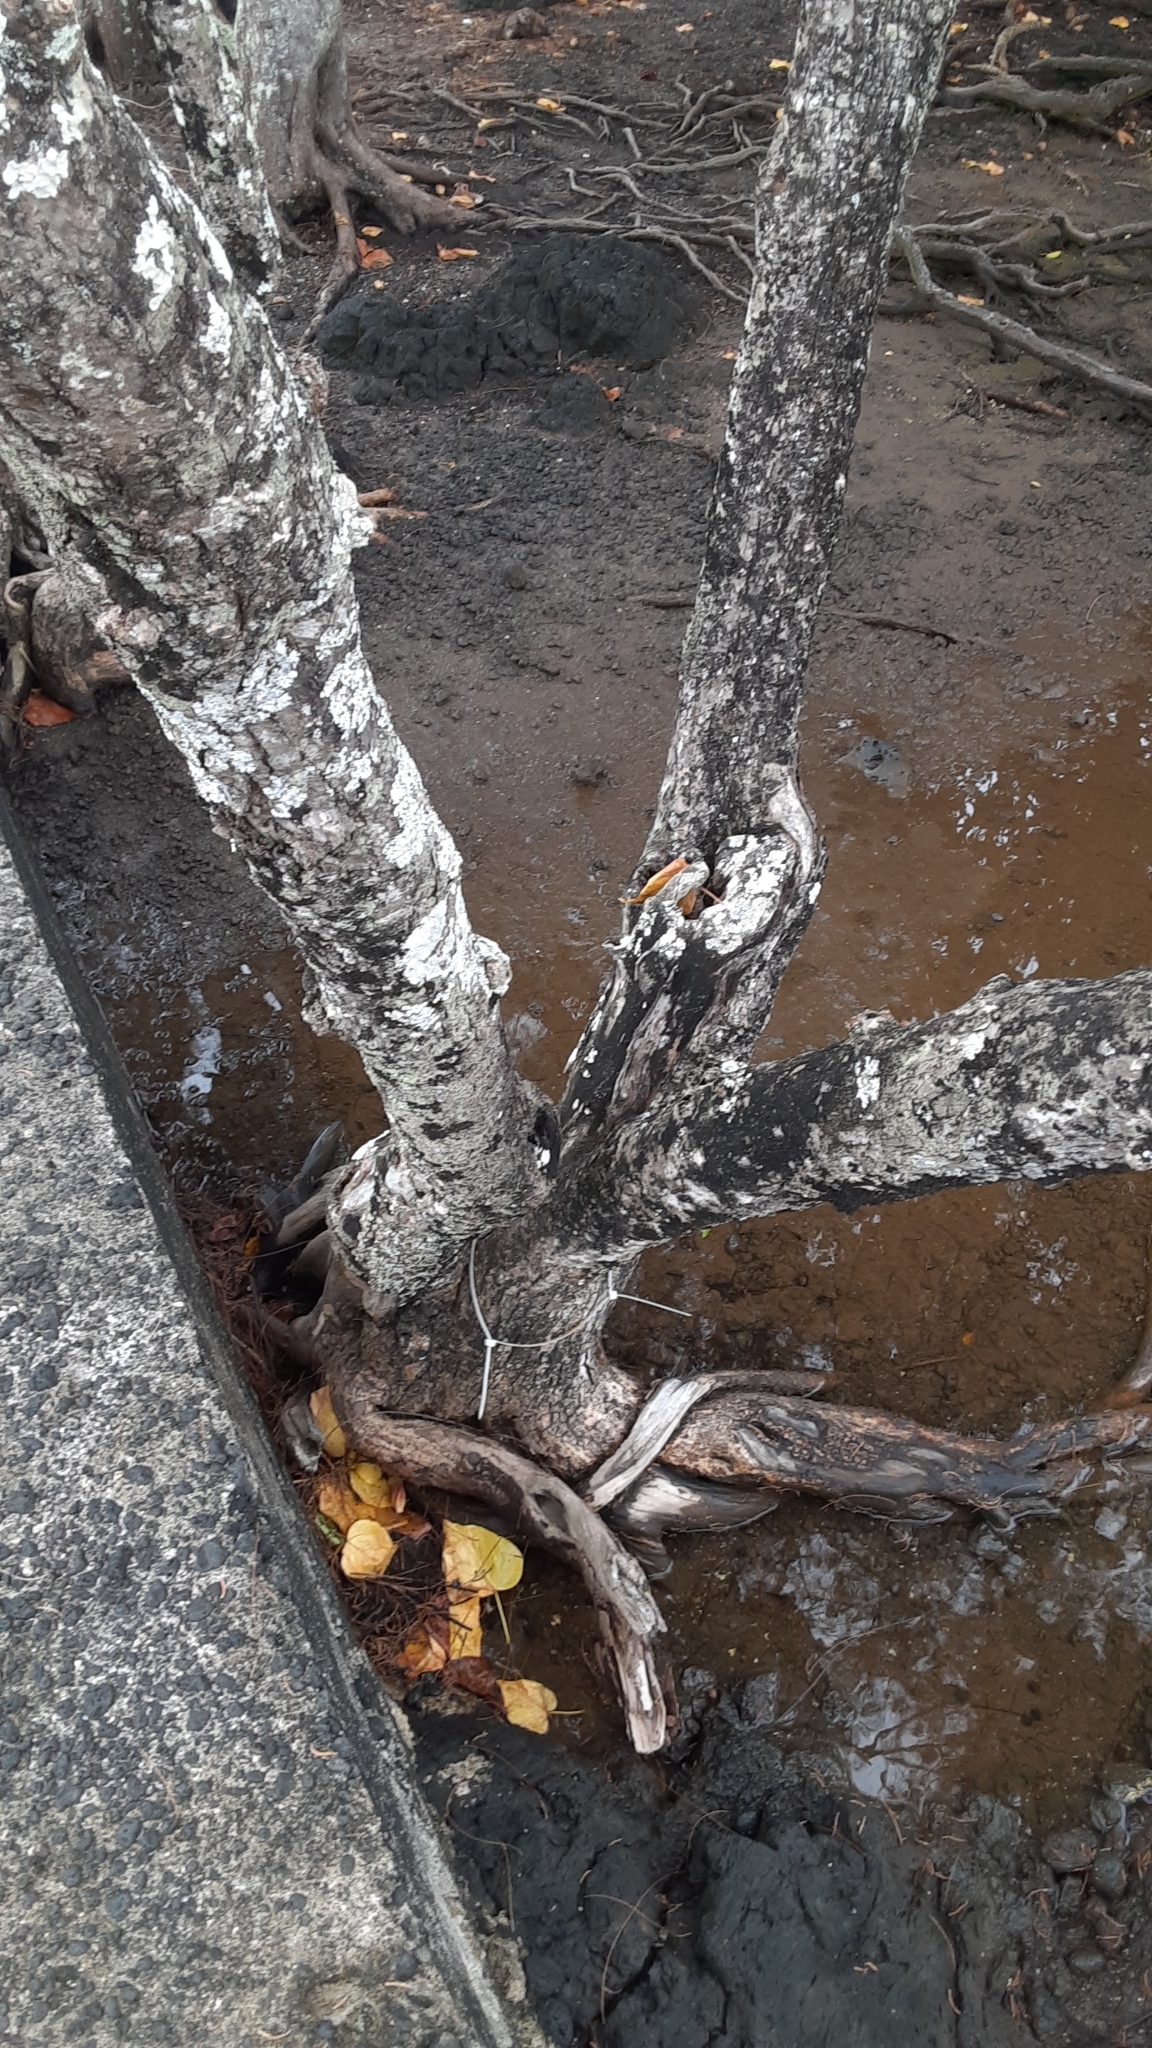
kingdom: Plantae
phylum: Tracheophyta
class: Magnoliopsida
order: Malvales
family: Malvaceae
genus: Thespesia
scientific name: Thespesia populnea
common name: Seaside mahoe
